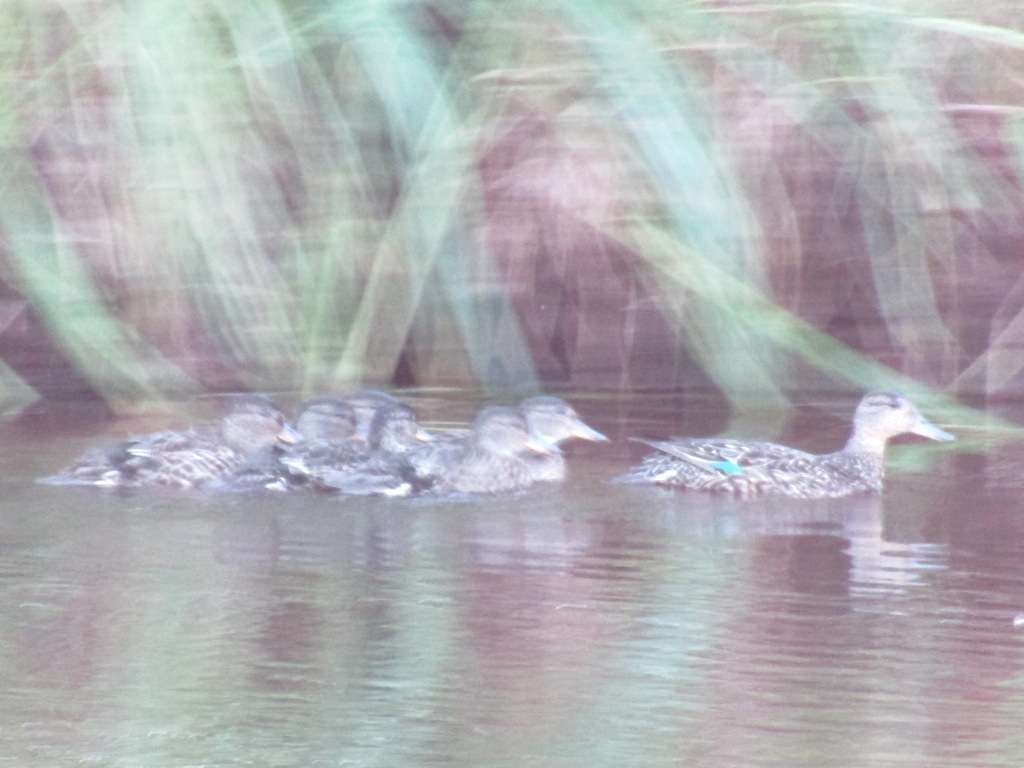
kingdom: Animalia
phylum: Chordata
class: Aves
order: Anseriformes
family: Anatidae
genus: Anas
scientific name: Anas crecca
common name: Eurasian teal
